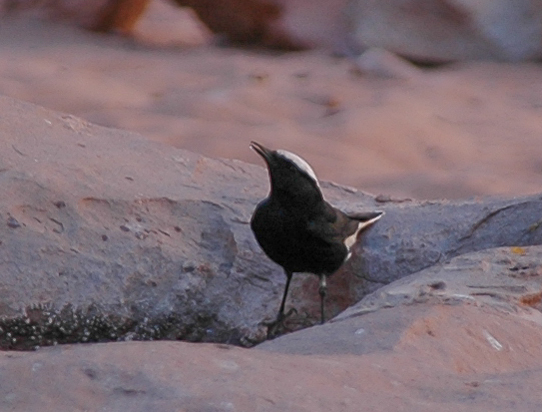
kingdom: Animalia
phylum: Chordata
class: Aves
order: Passeriformes
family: Muscicapidae
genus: Oenanthe
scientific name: Oenanthe leucopyga
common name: White-crowned wheatear
